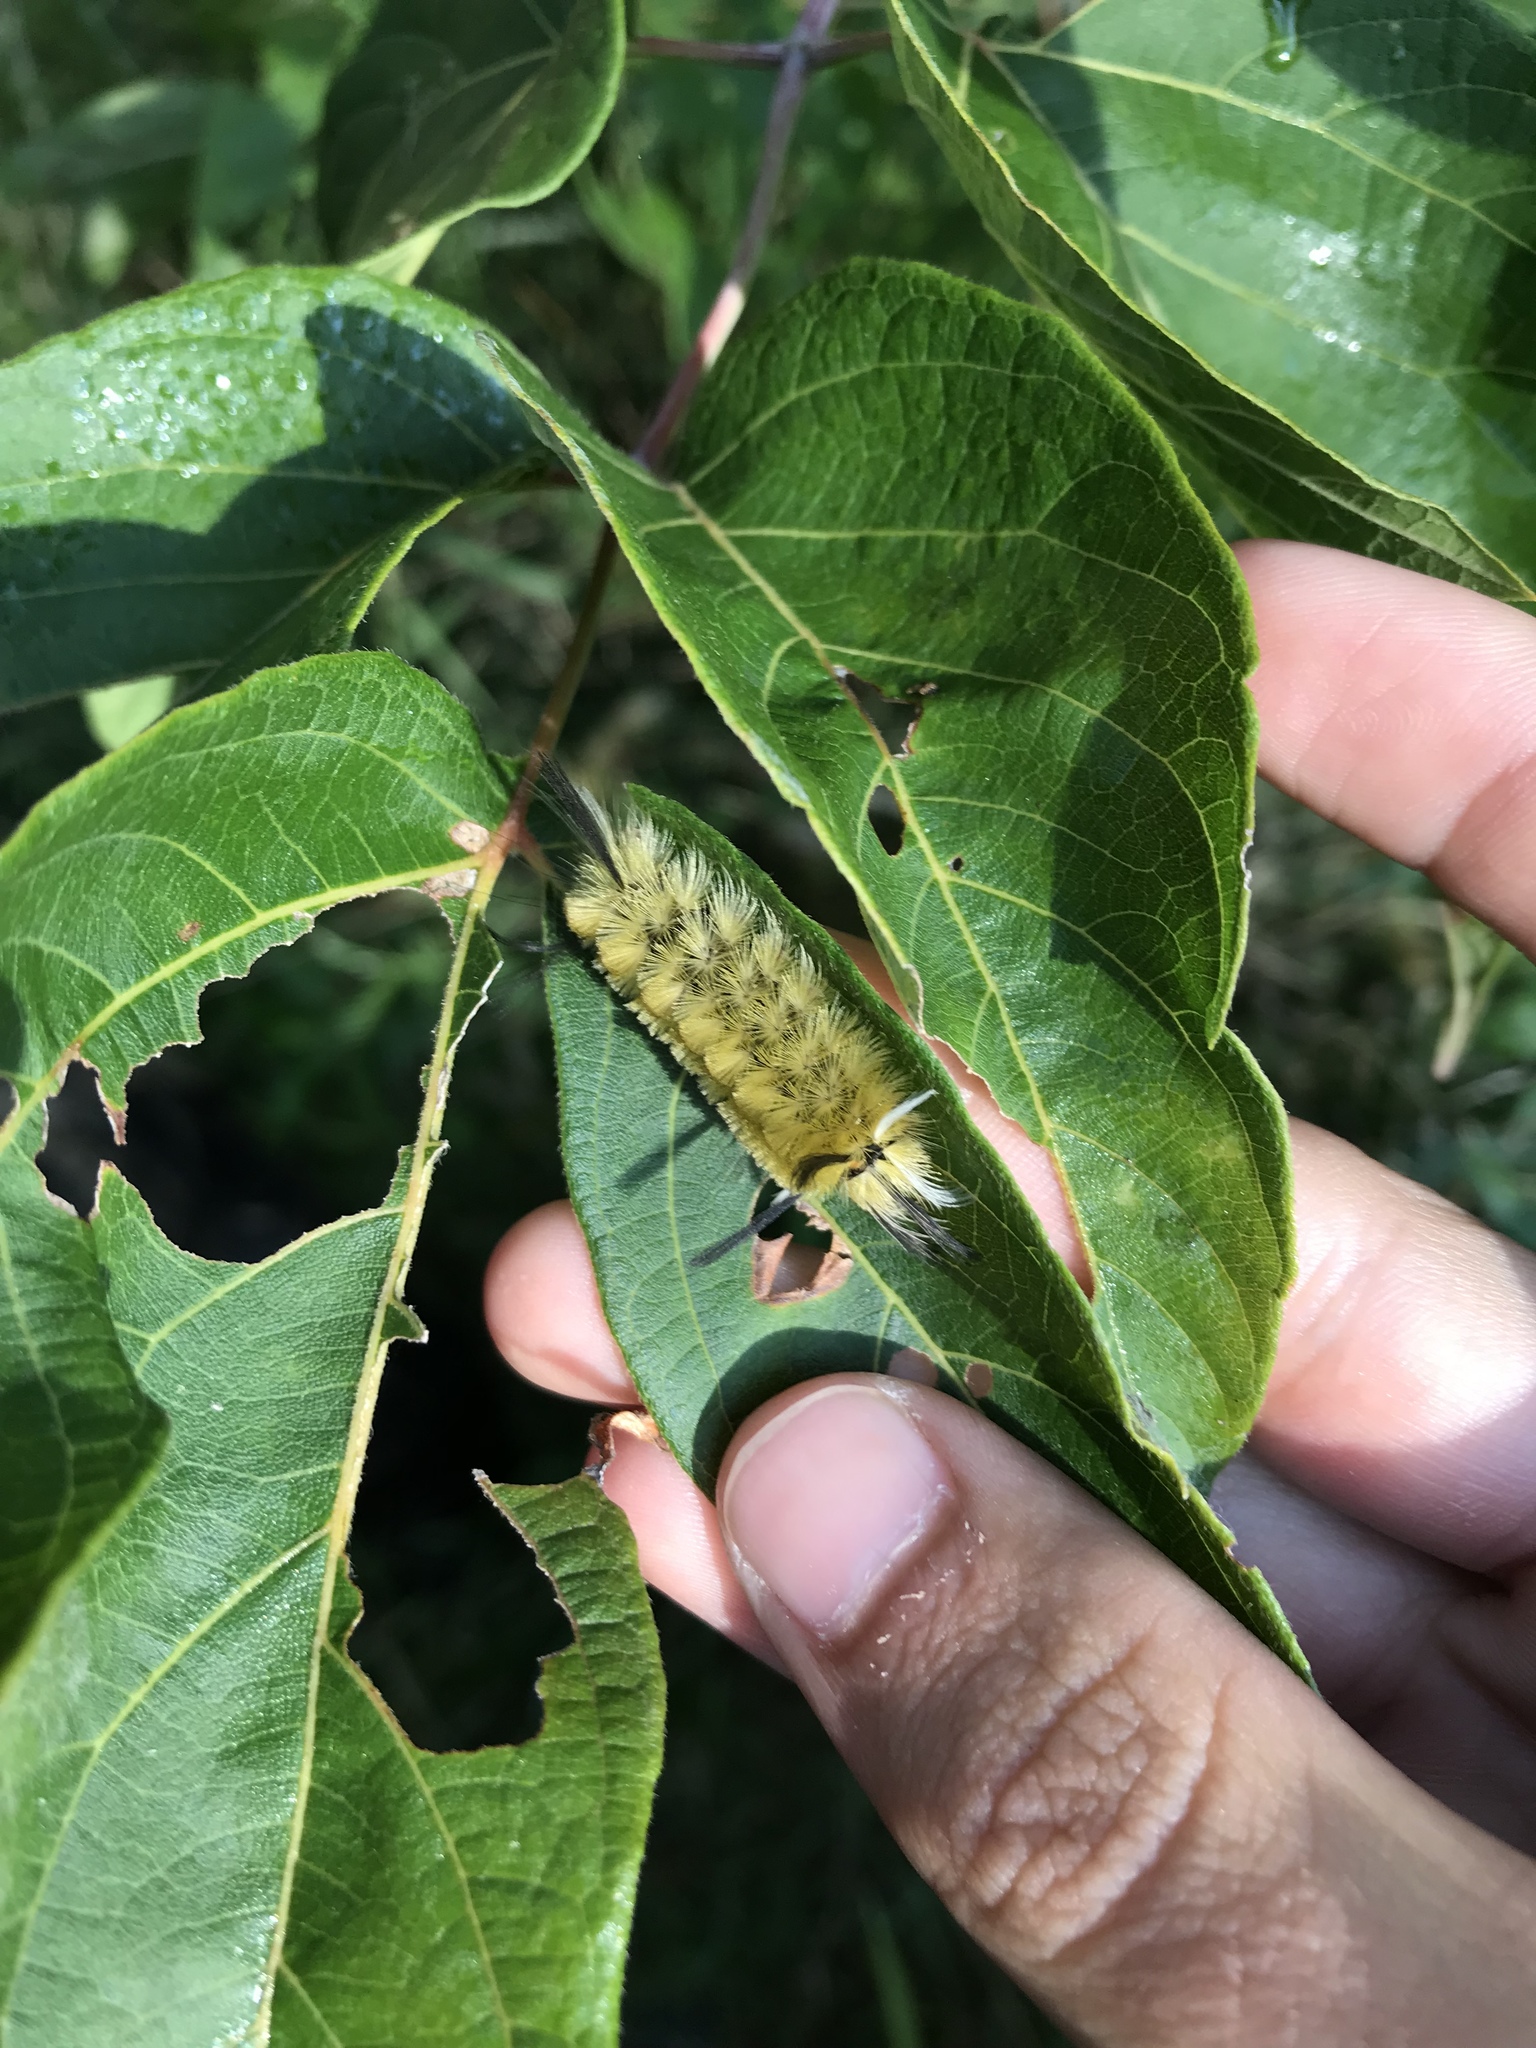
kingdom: Animalia
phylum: Arthropoda
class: Insecta
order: Lepidoptera
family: Erebidae
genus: Halysidota
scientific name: Halysidota tessellaris
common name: Banded tussock moth
